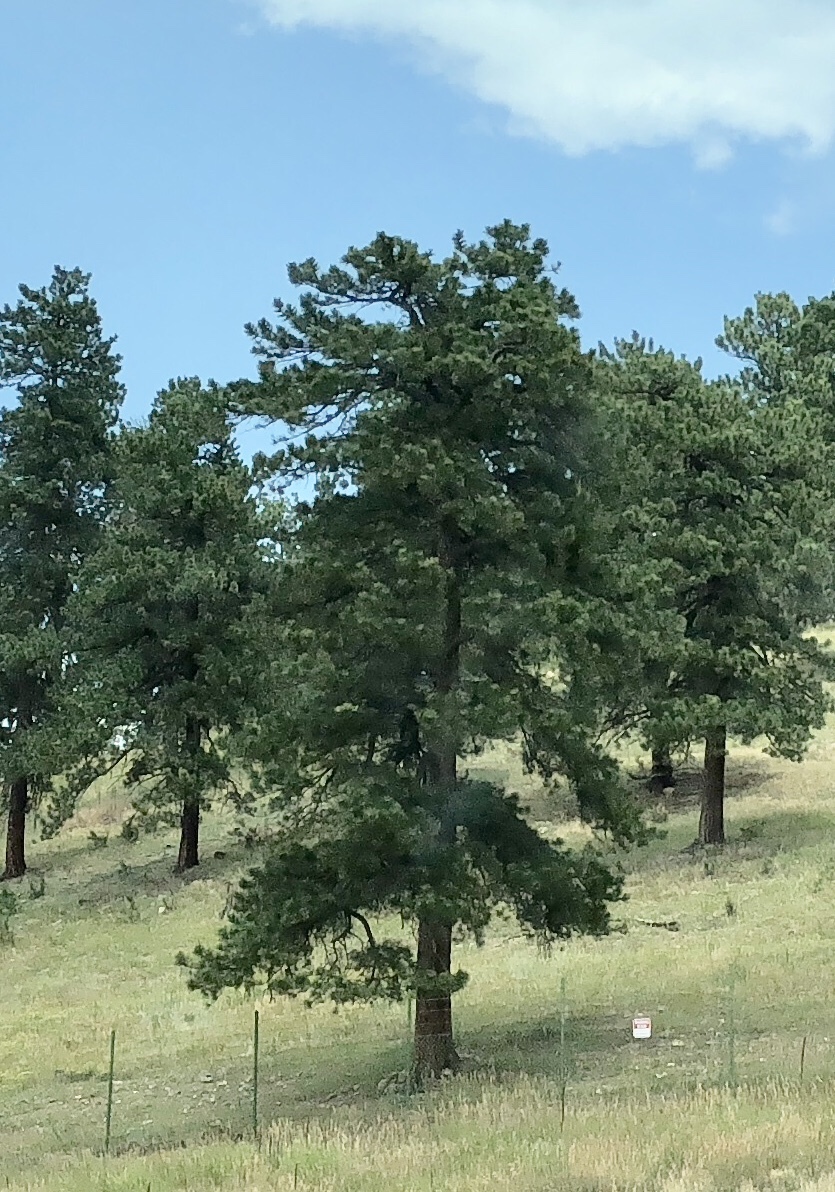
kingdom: Plantae
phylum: Tracheophyta
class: Pinopsida
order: Pinales
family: Pinaceae
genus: Pinus
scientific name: Pinus ponderosa
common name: Western yellow-pine
